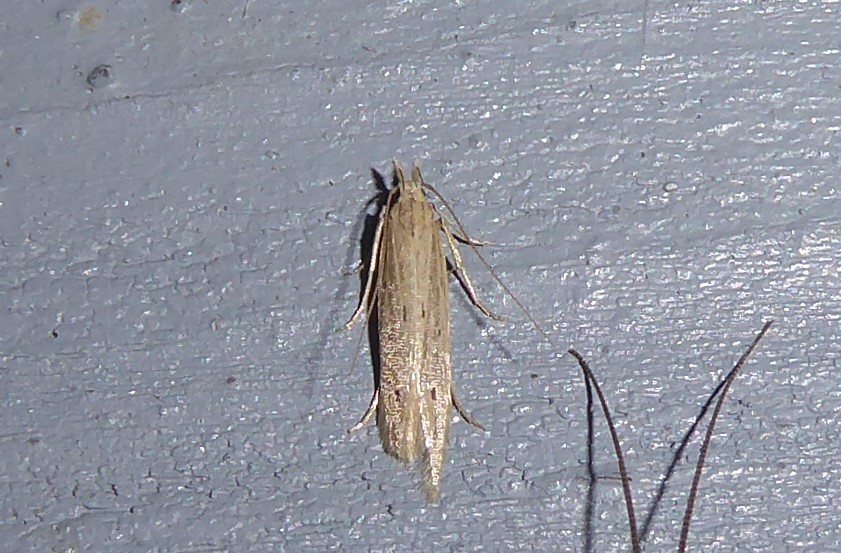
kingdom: Animalia
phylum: Arthropoda
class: Insecta
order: Lepidoptera
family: Gelechiidae
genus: Epiphthora
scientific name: Epiphthora calamogonus
